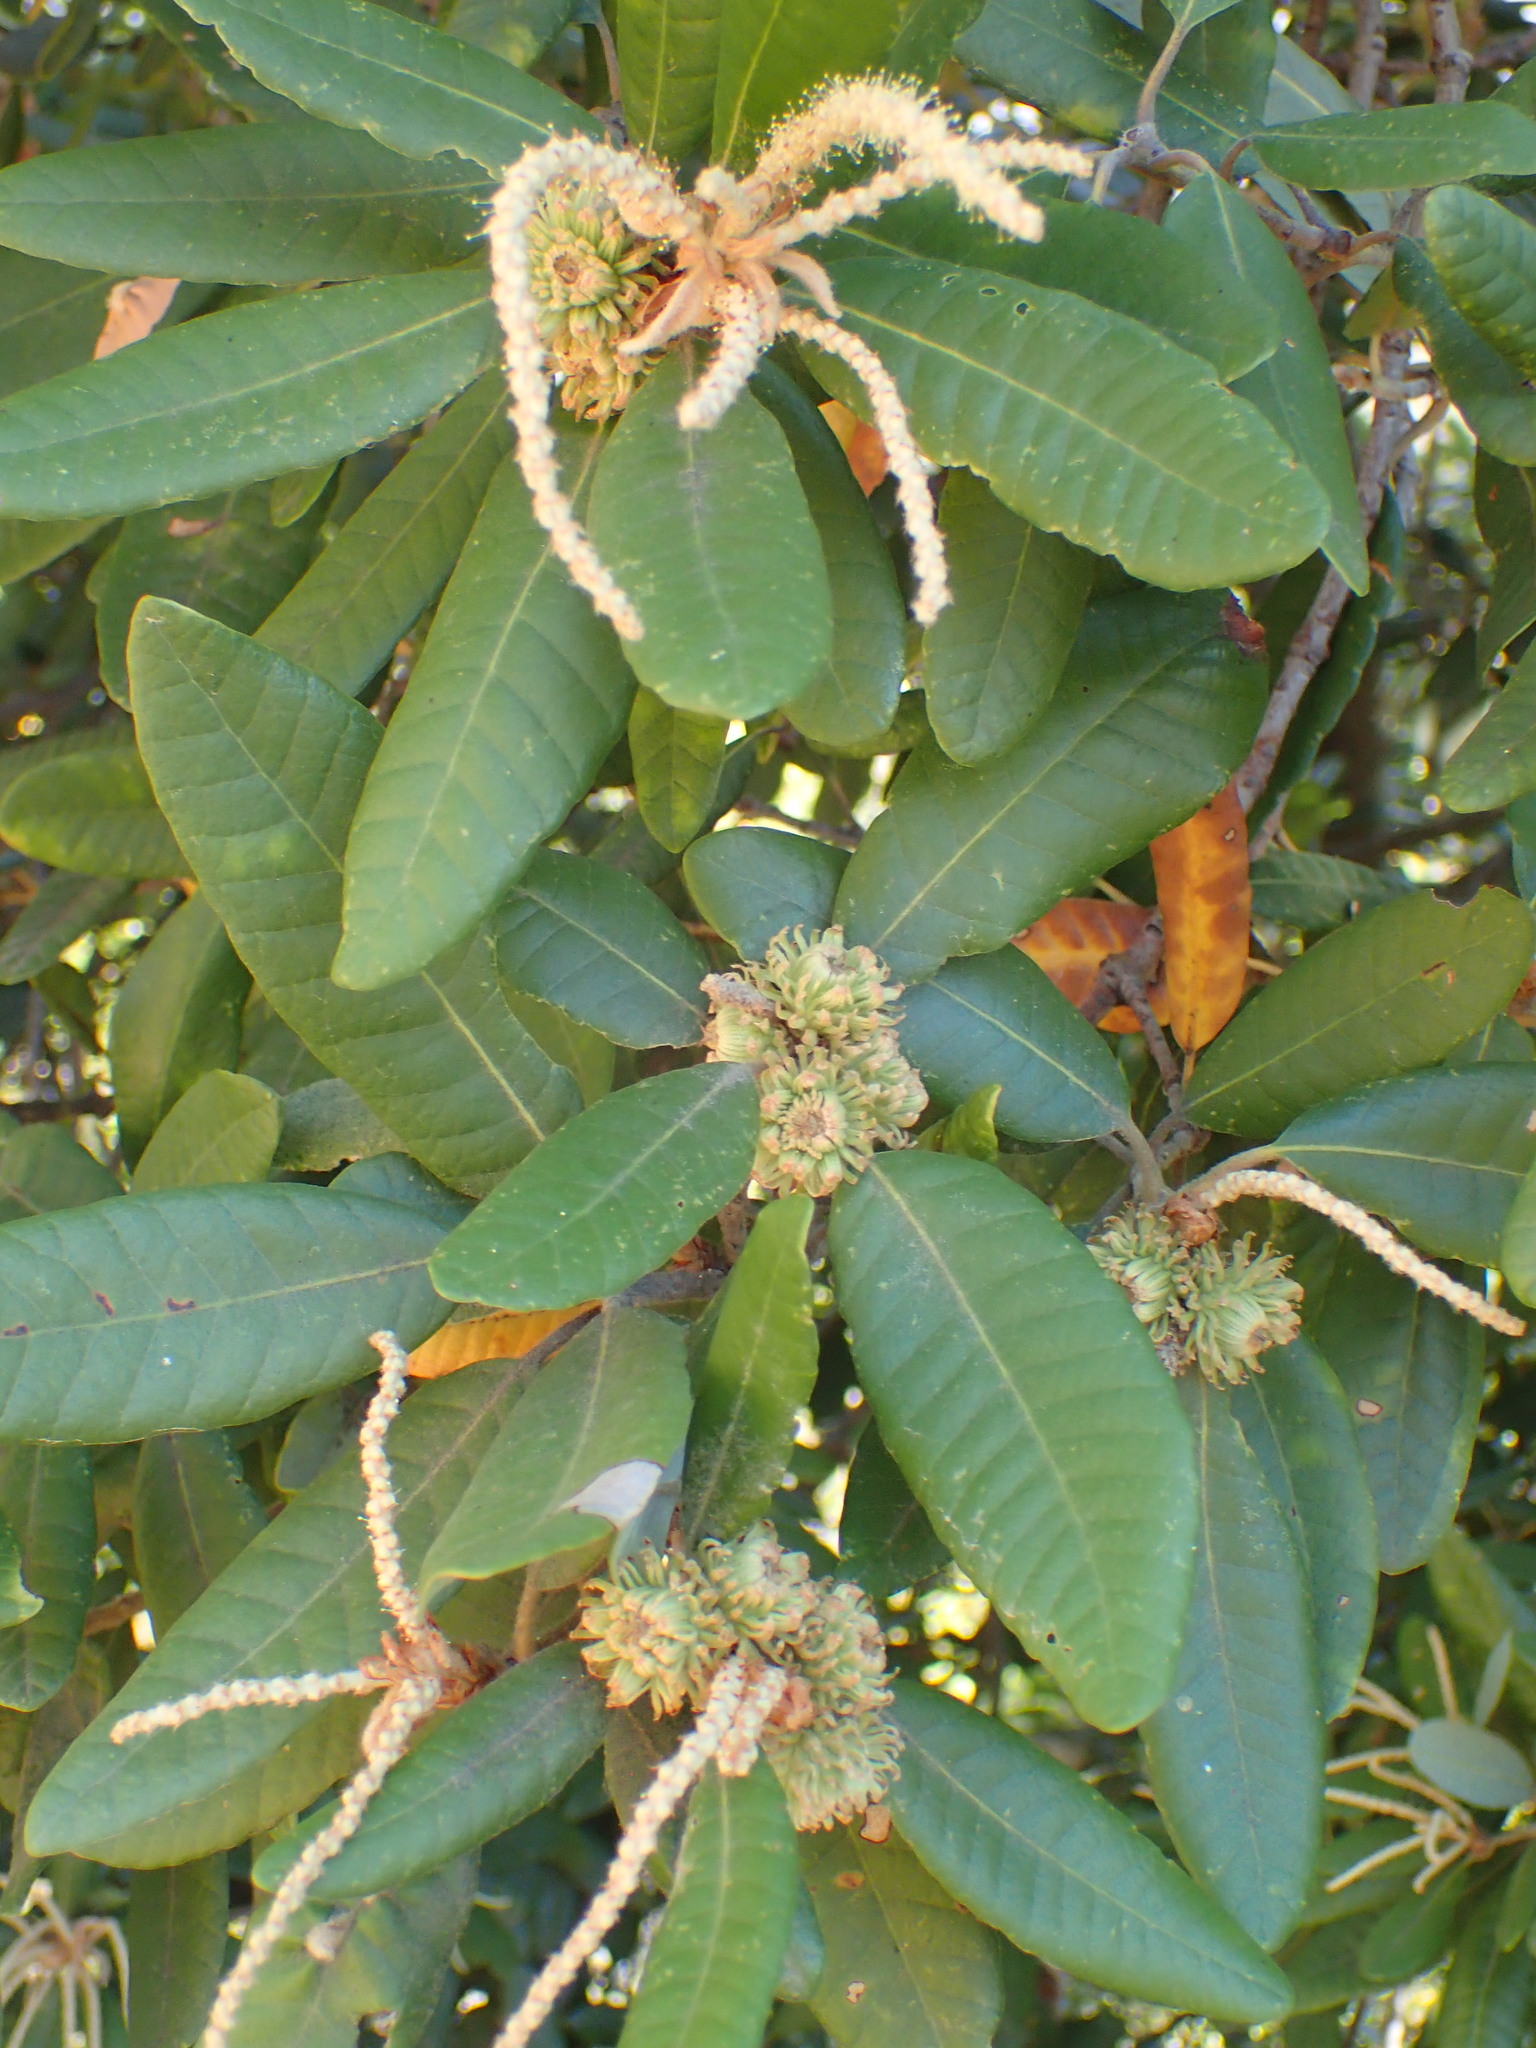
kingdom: Plantae
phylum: Tracheophyta
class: Magnoliopsida
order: Fagales
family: Fagaceae
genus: Notholithocarpus
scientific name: Notholithocarpus densiflorus
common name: Tan bark oak
